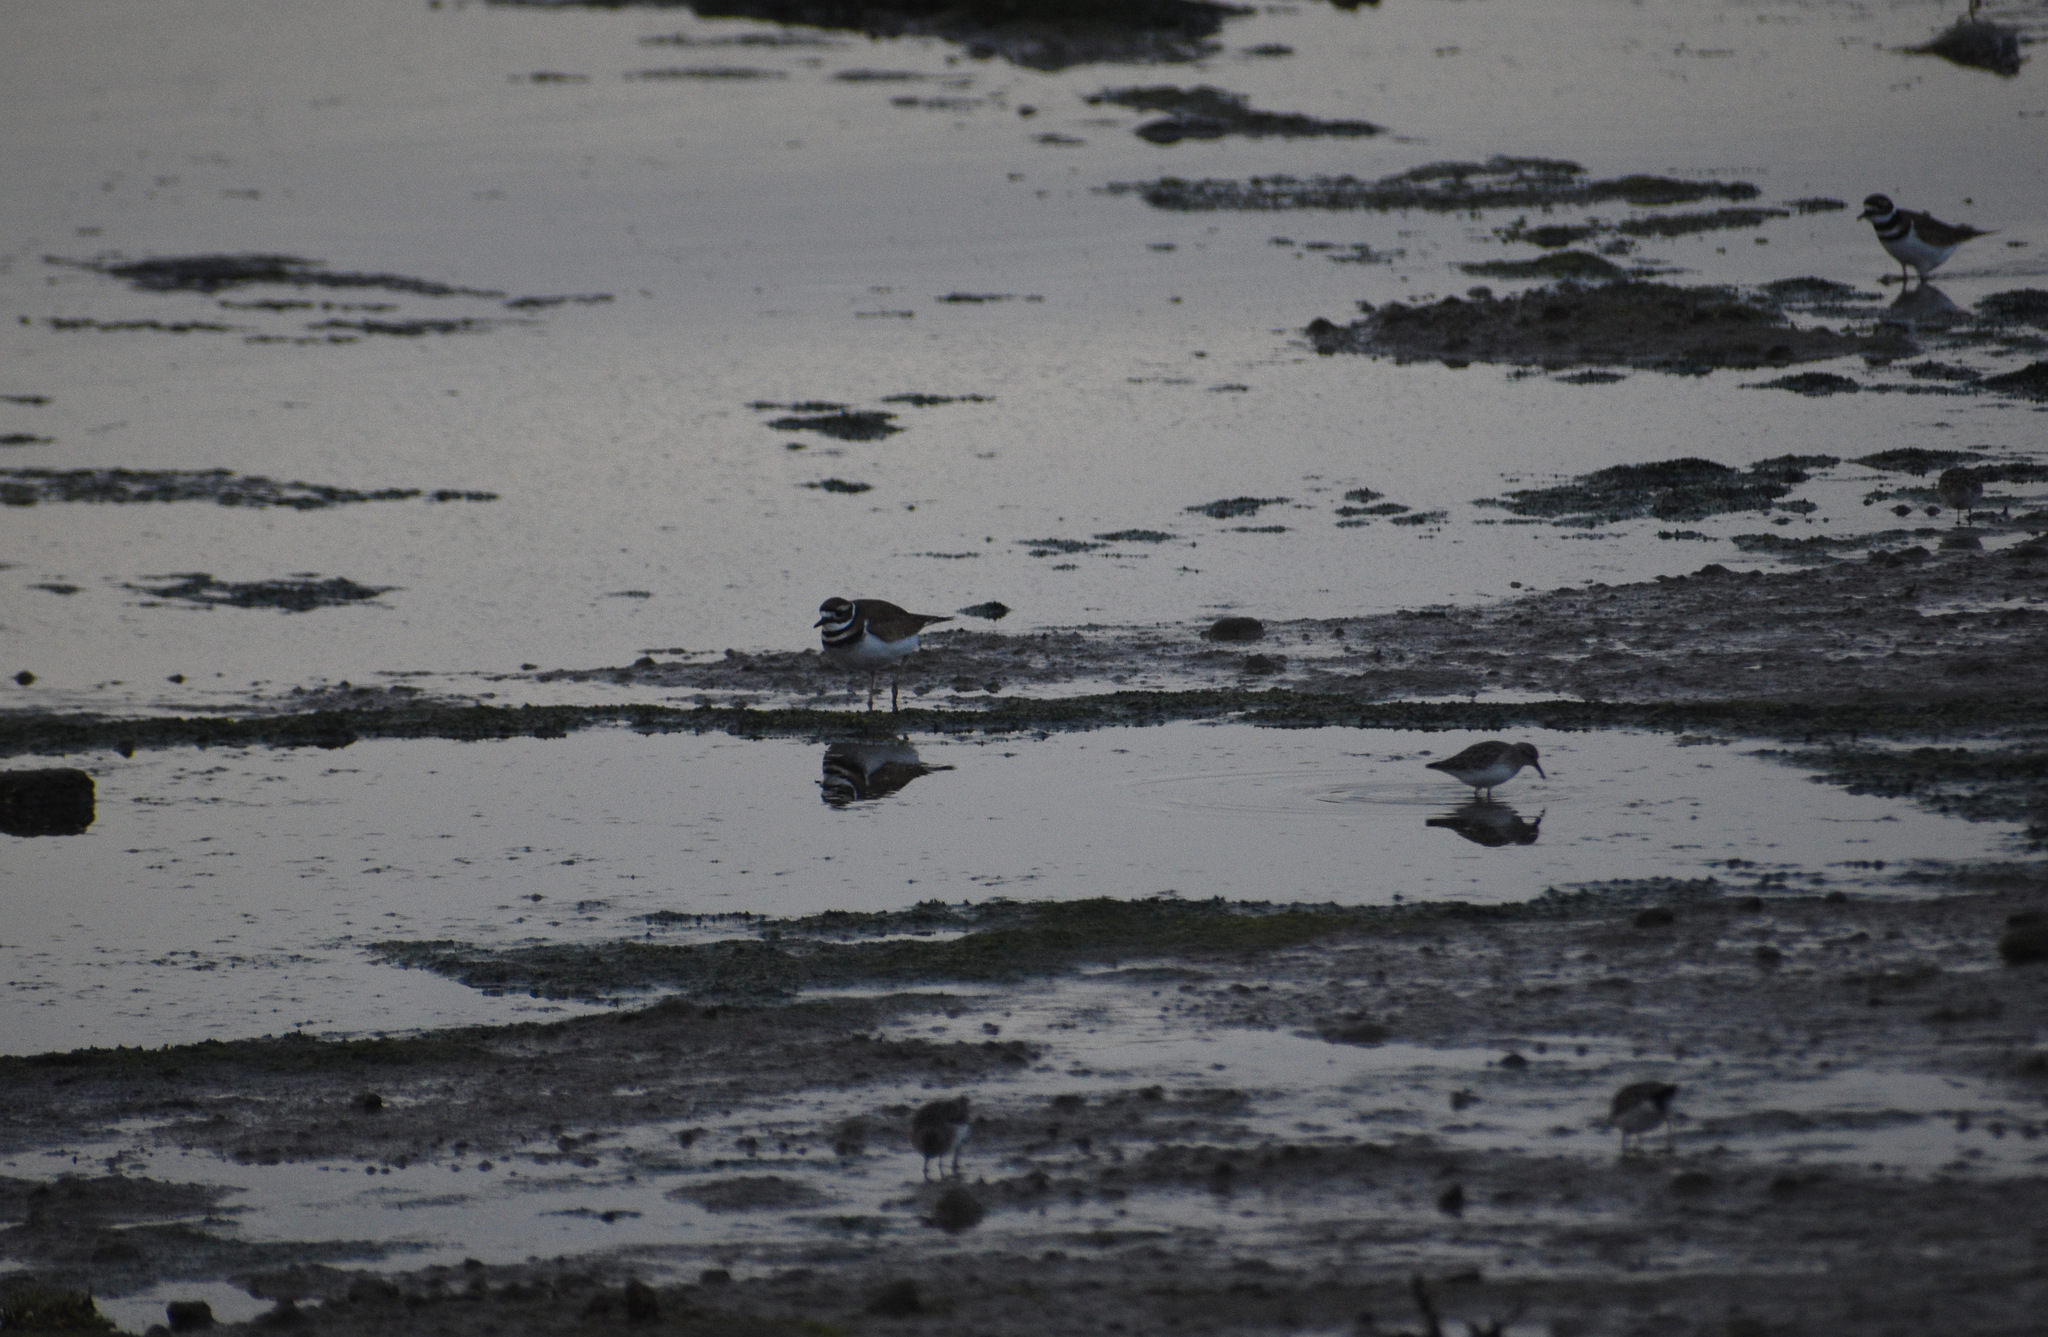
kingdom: Animalia
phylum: Chordata
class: Aves
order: Charadriiformes
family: Charadriidae
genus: Charadrius
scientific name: Charadrius vociferus
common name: Killdeer
